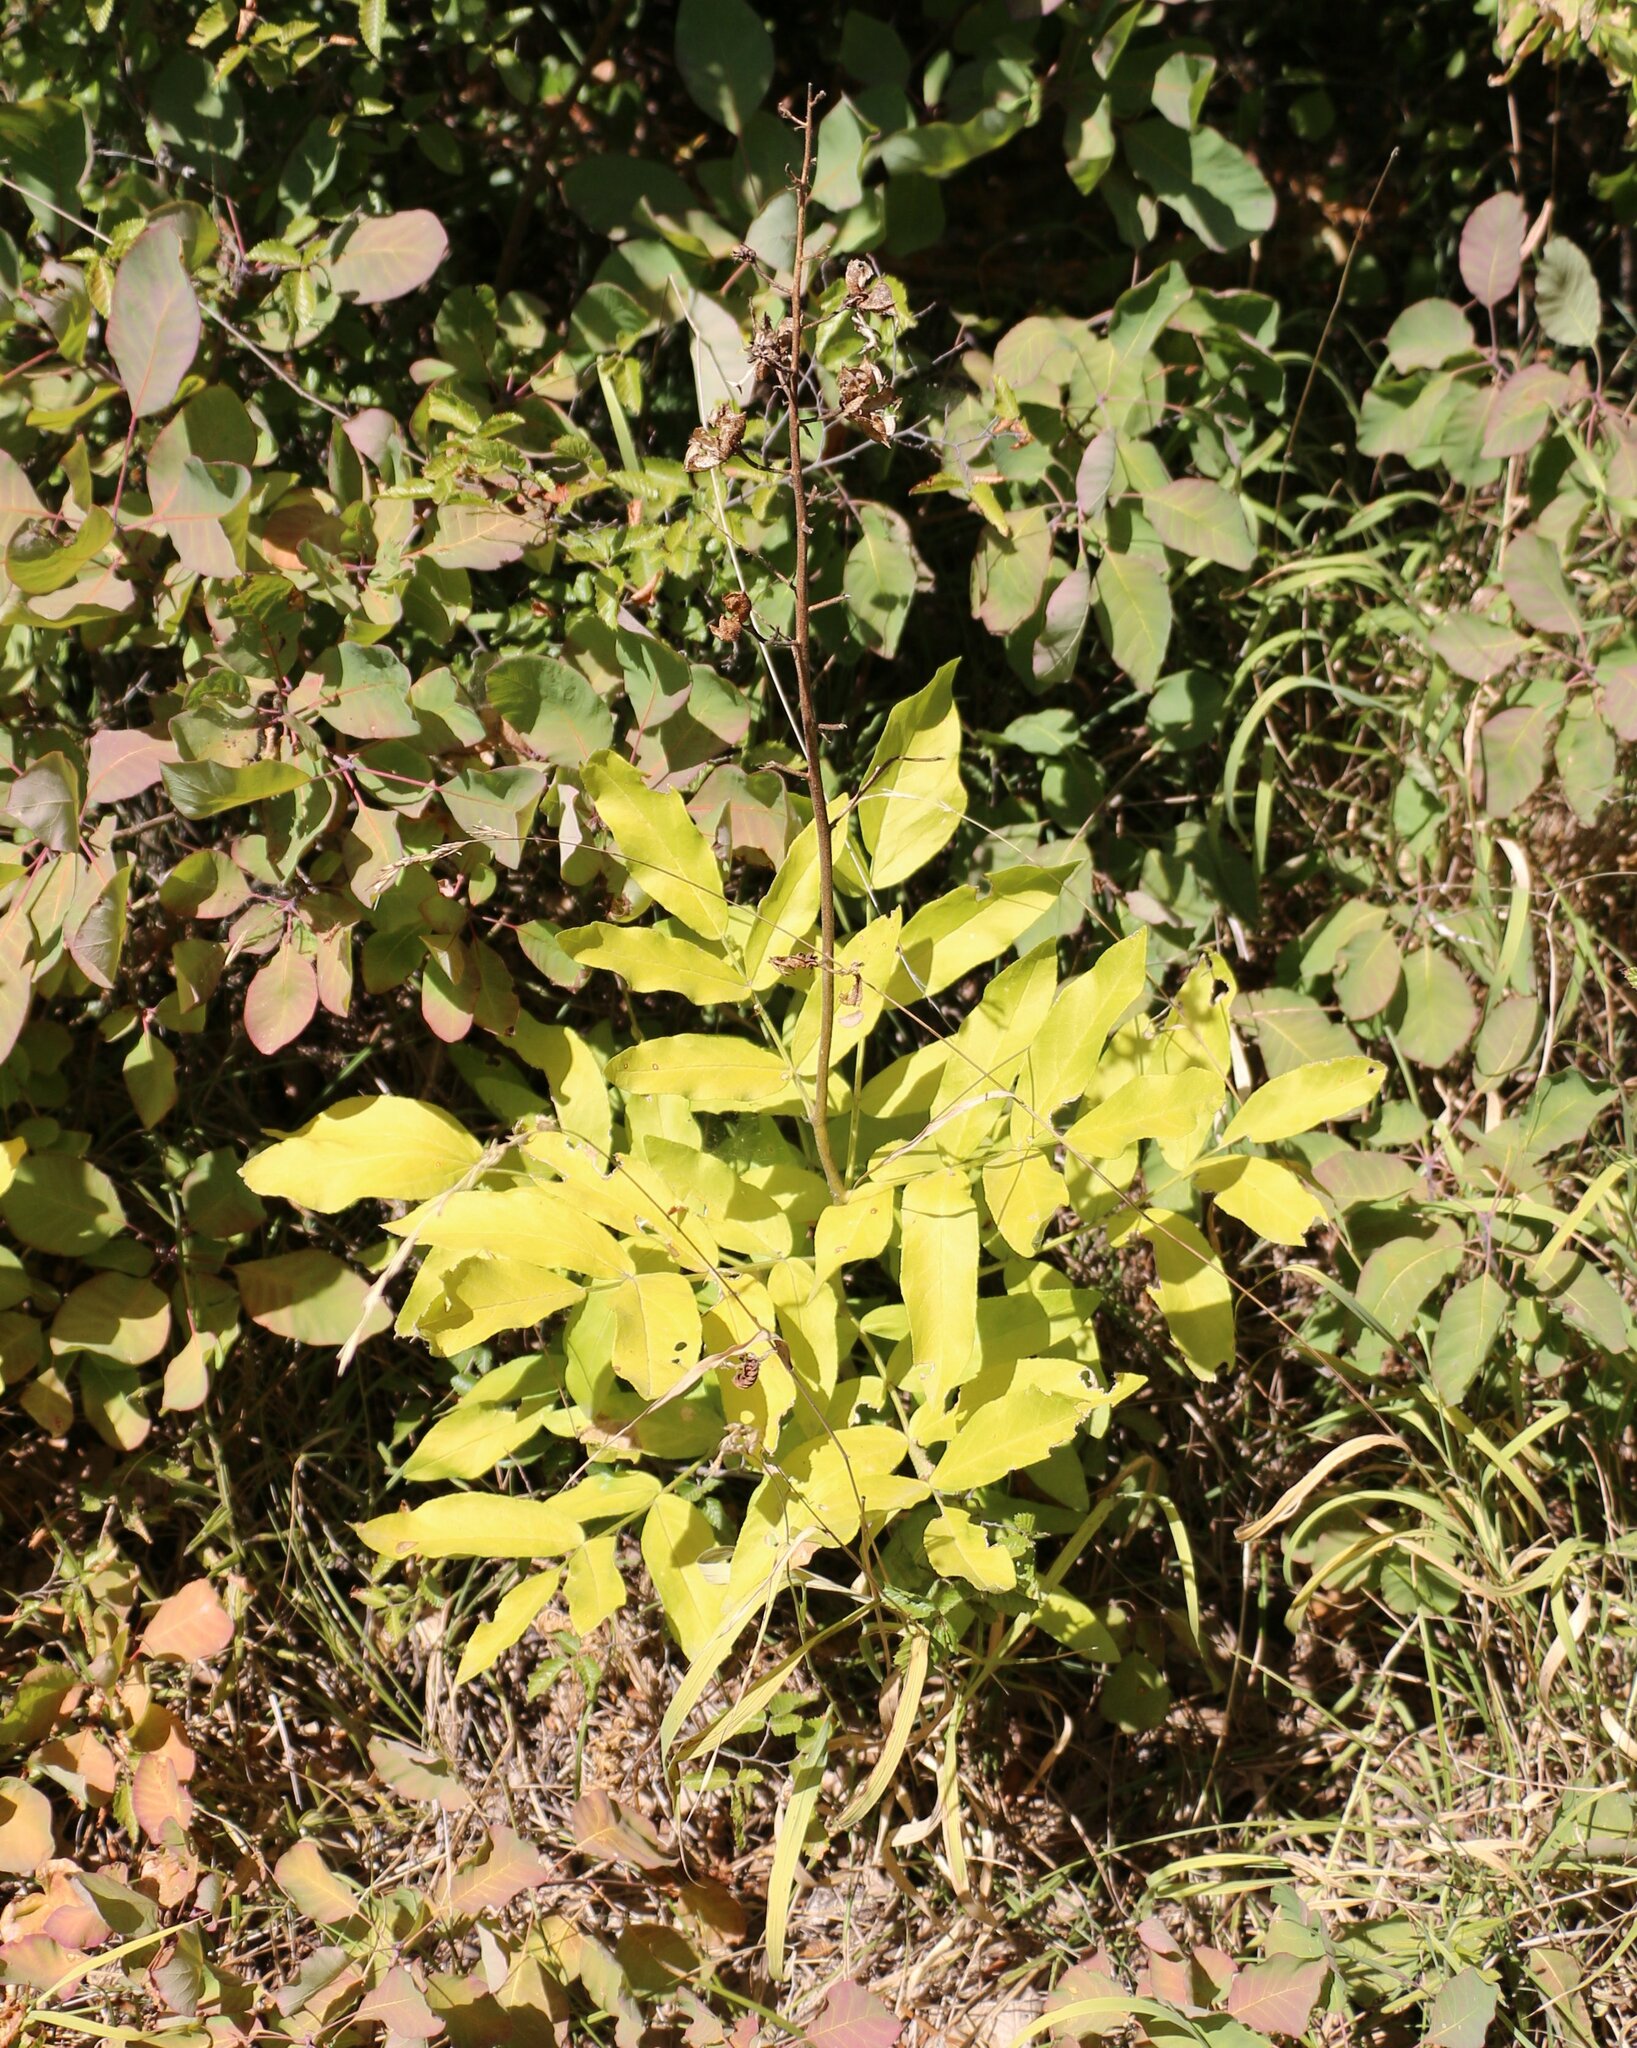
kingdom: Plantae
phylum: Tracheophyta
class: Magnoliopsida
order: Sapindales
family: Rutaceae
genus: Dictamnus
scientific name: Dictamnus albus
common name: Gasplant
